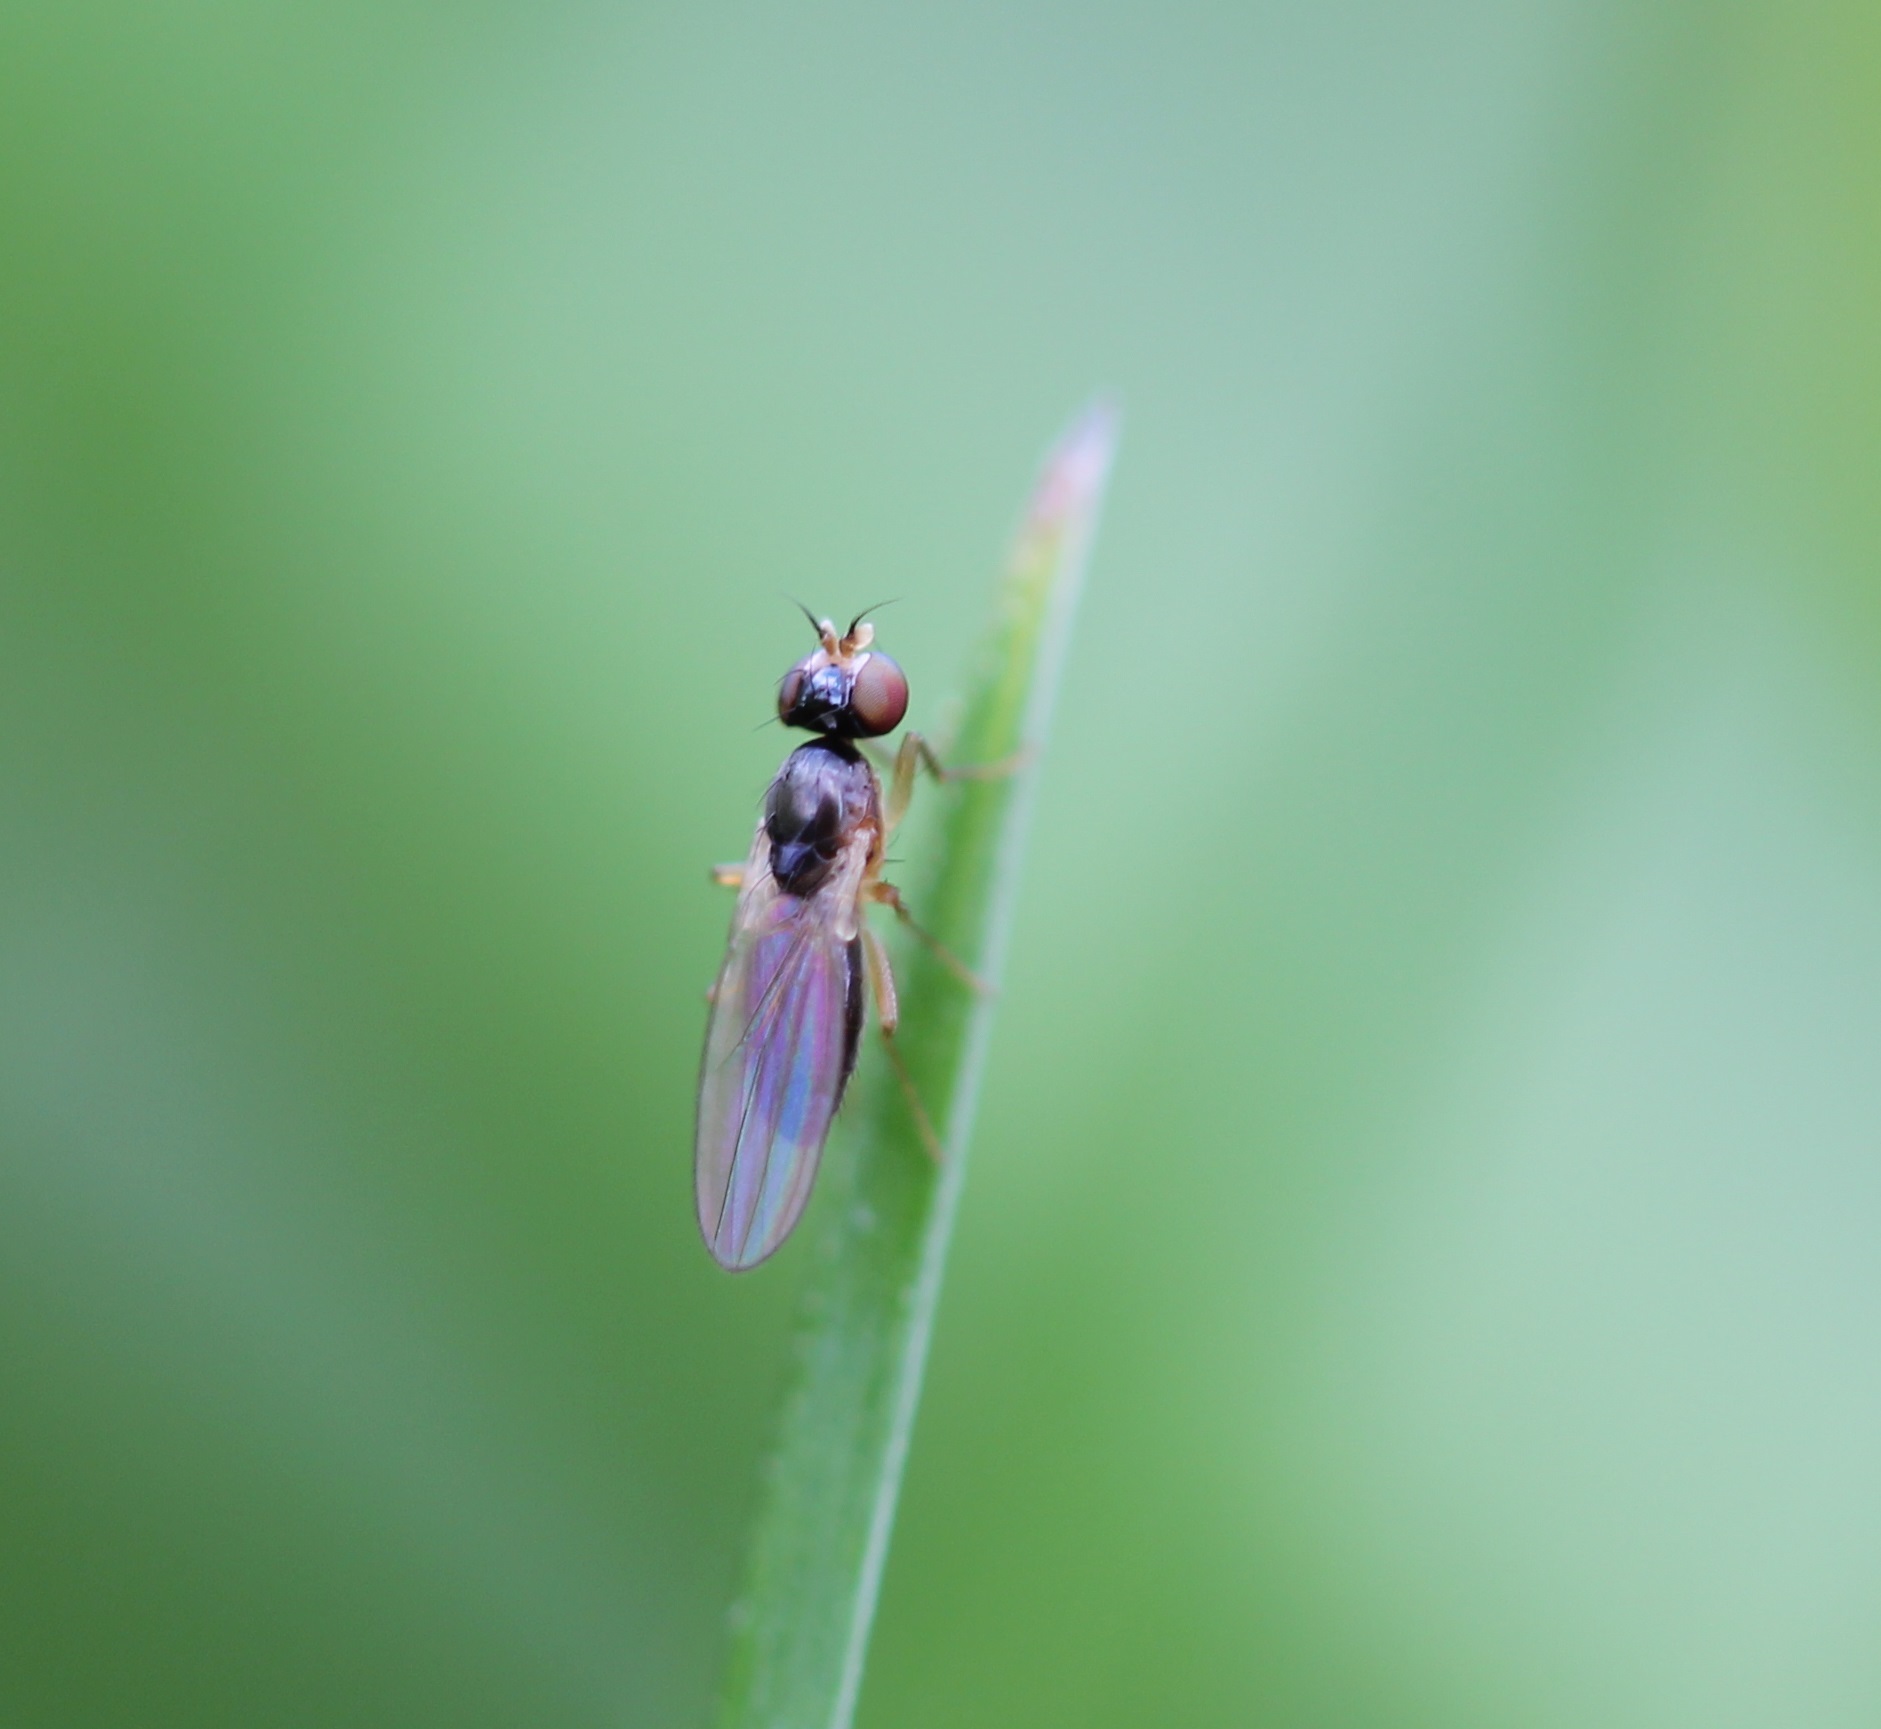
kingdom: Animalia
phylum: Arthropoda
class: Insecta
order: Diptera
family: Anthomyzidae
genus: Mumetopia
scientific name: Mumetopia occipitalis
